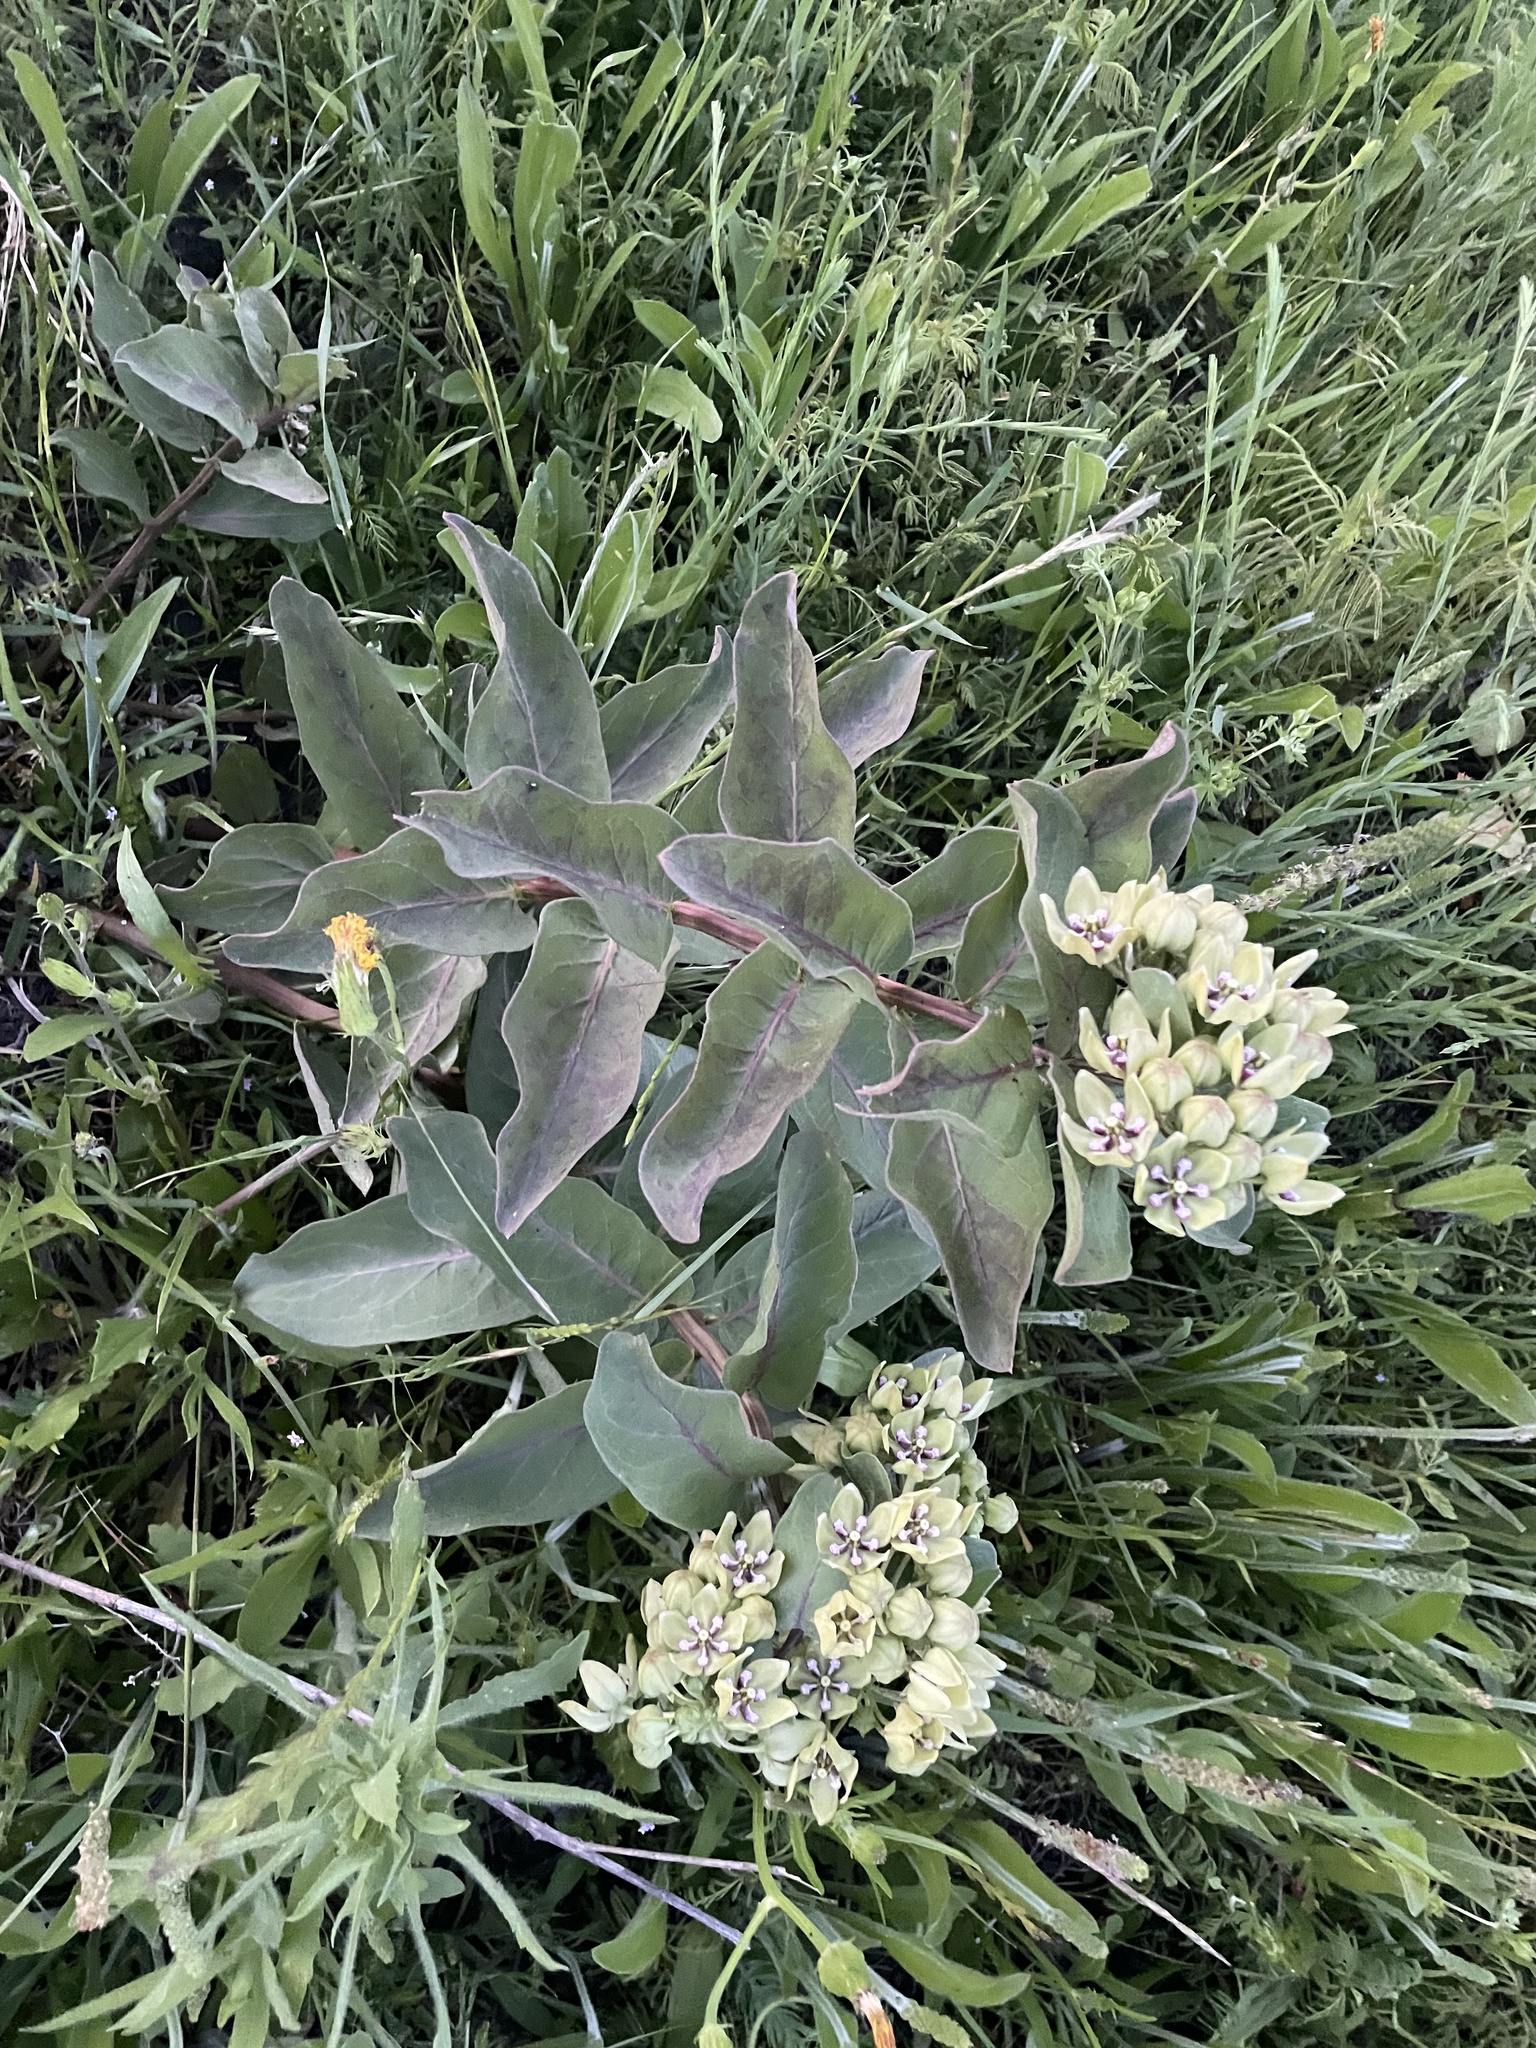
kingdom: Plantae
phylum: Tracheophyta
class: Magnoliopsida
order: Gentianales
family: Apocynaceae
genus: Asclepias
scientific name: Asclepias viridis
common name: Antelope-horns
